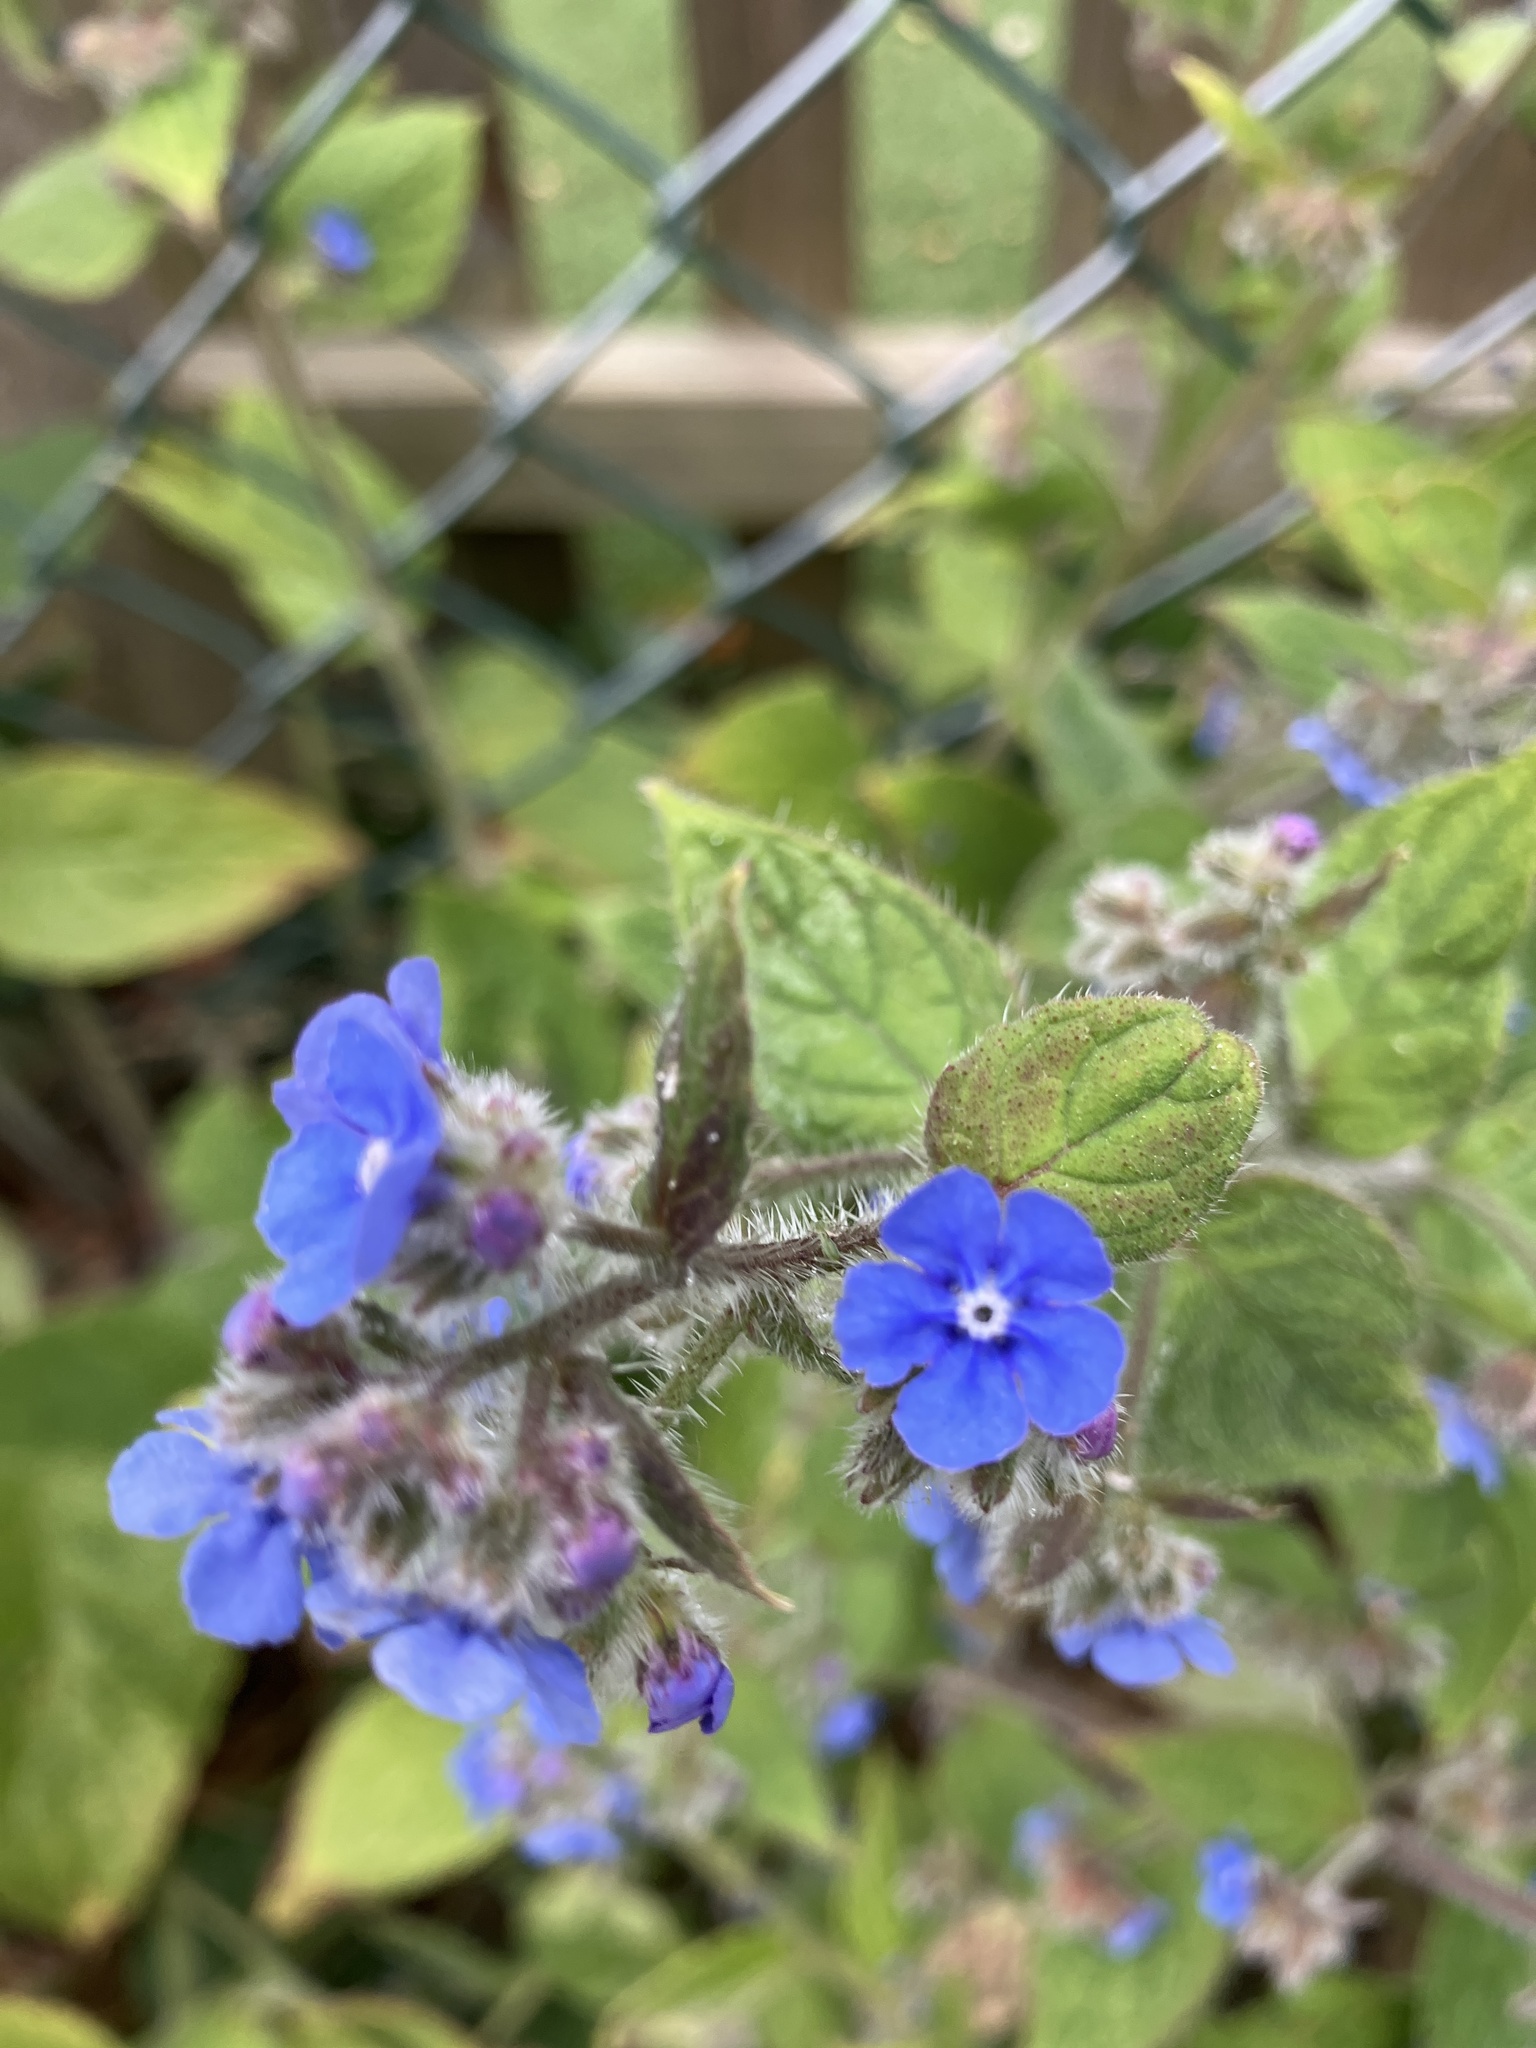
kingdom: Plantae
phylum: Tracheophyta
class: Magnoliopsida
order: Boraginales
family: Boraginaceae
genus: Pentaglottis
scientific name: Pentaglottis sempervirens
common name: Green alkanet
